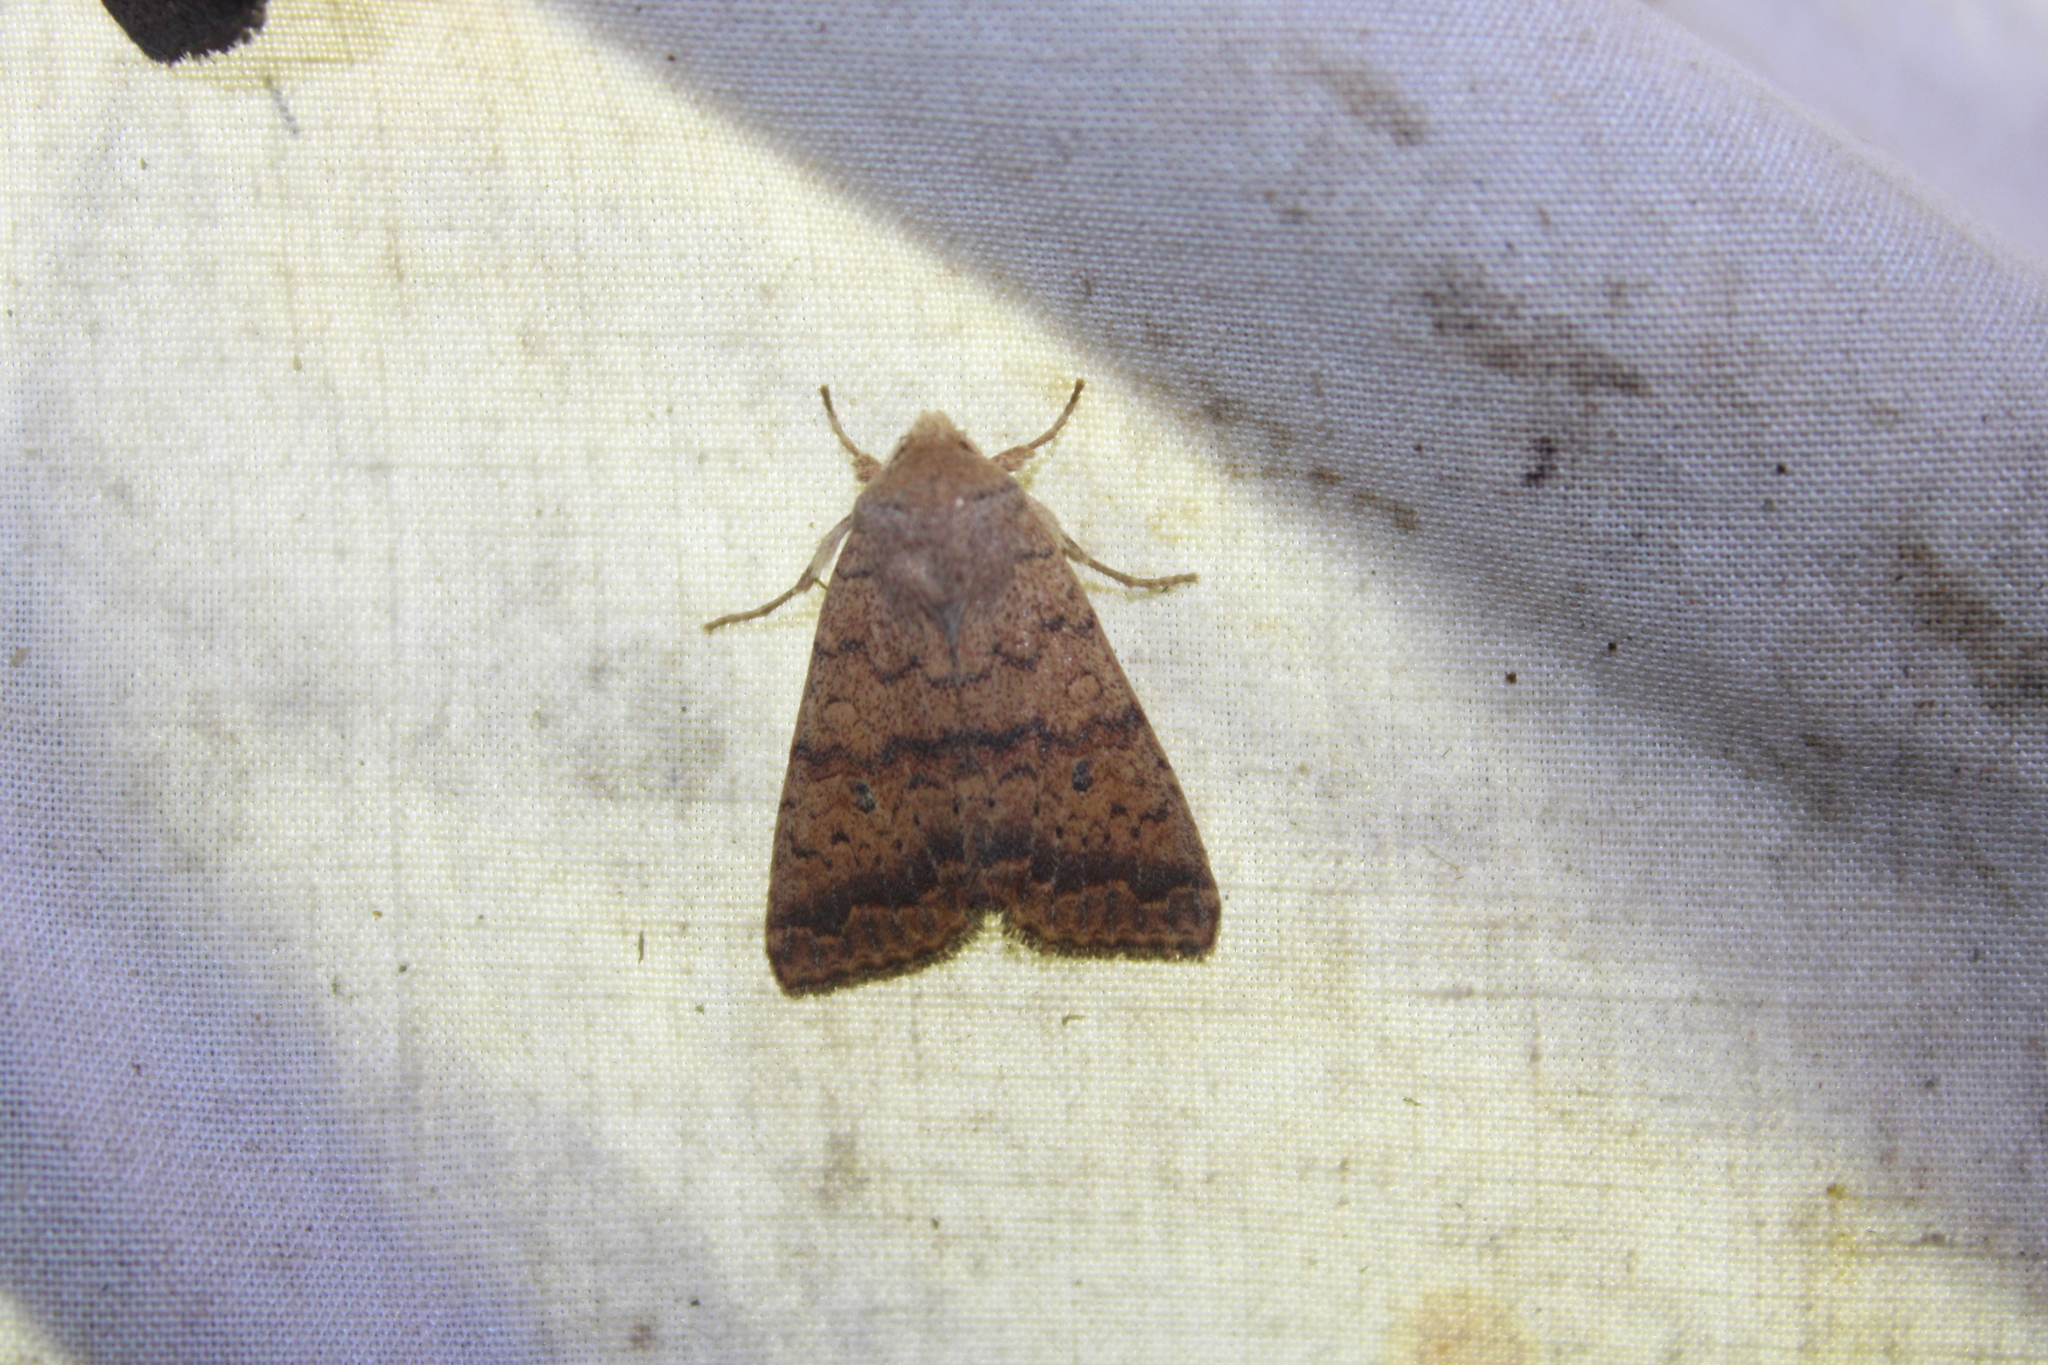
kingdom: Animalia
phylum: Arthropoda
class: Insecta
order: Lepidoptera
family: Noctuidae
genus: Agrochola
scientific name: Agrochola bicolorago
